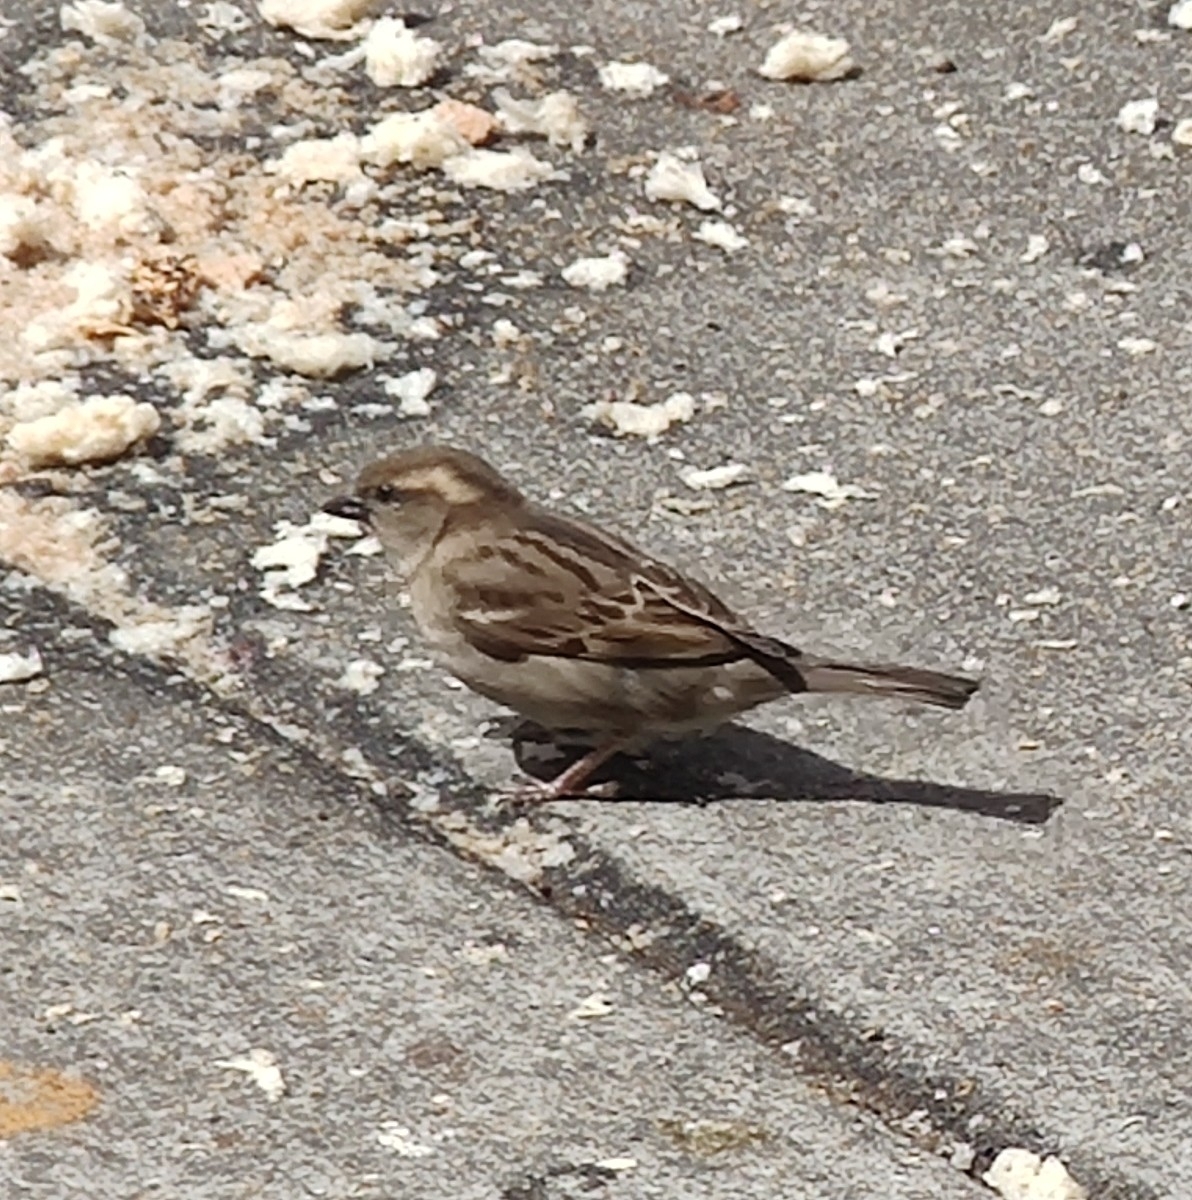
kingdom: Animalia
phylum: Chordata
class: Aves
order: Passeriformes
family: Passeridae
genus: Passer
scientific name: Passer domesticus
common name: House sparrow
